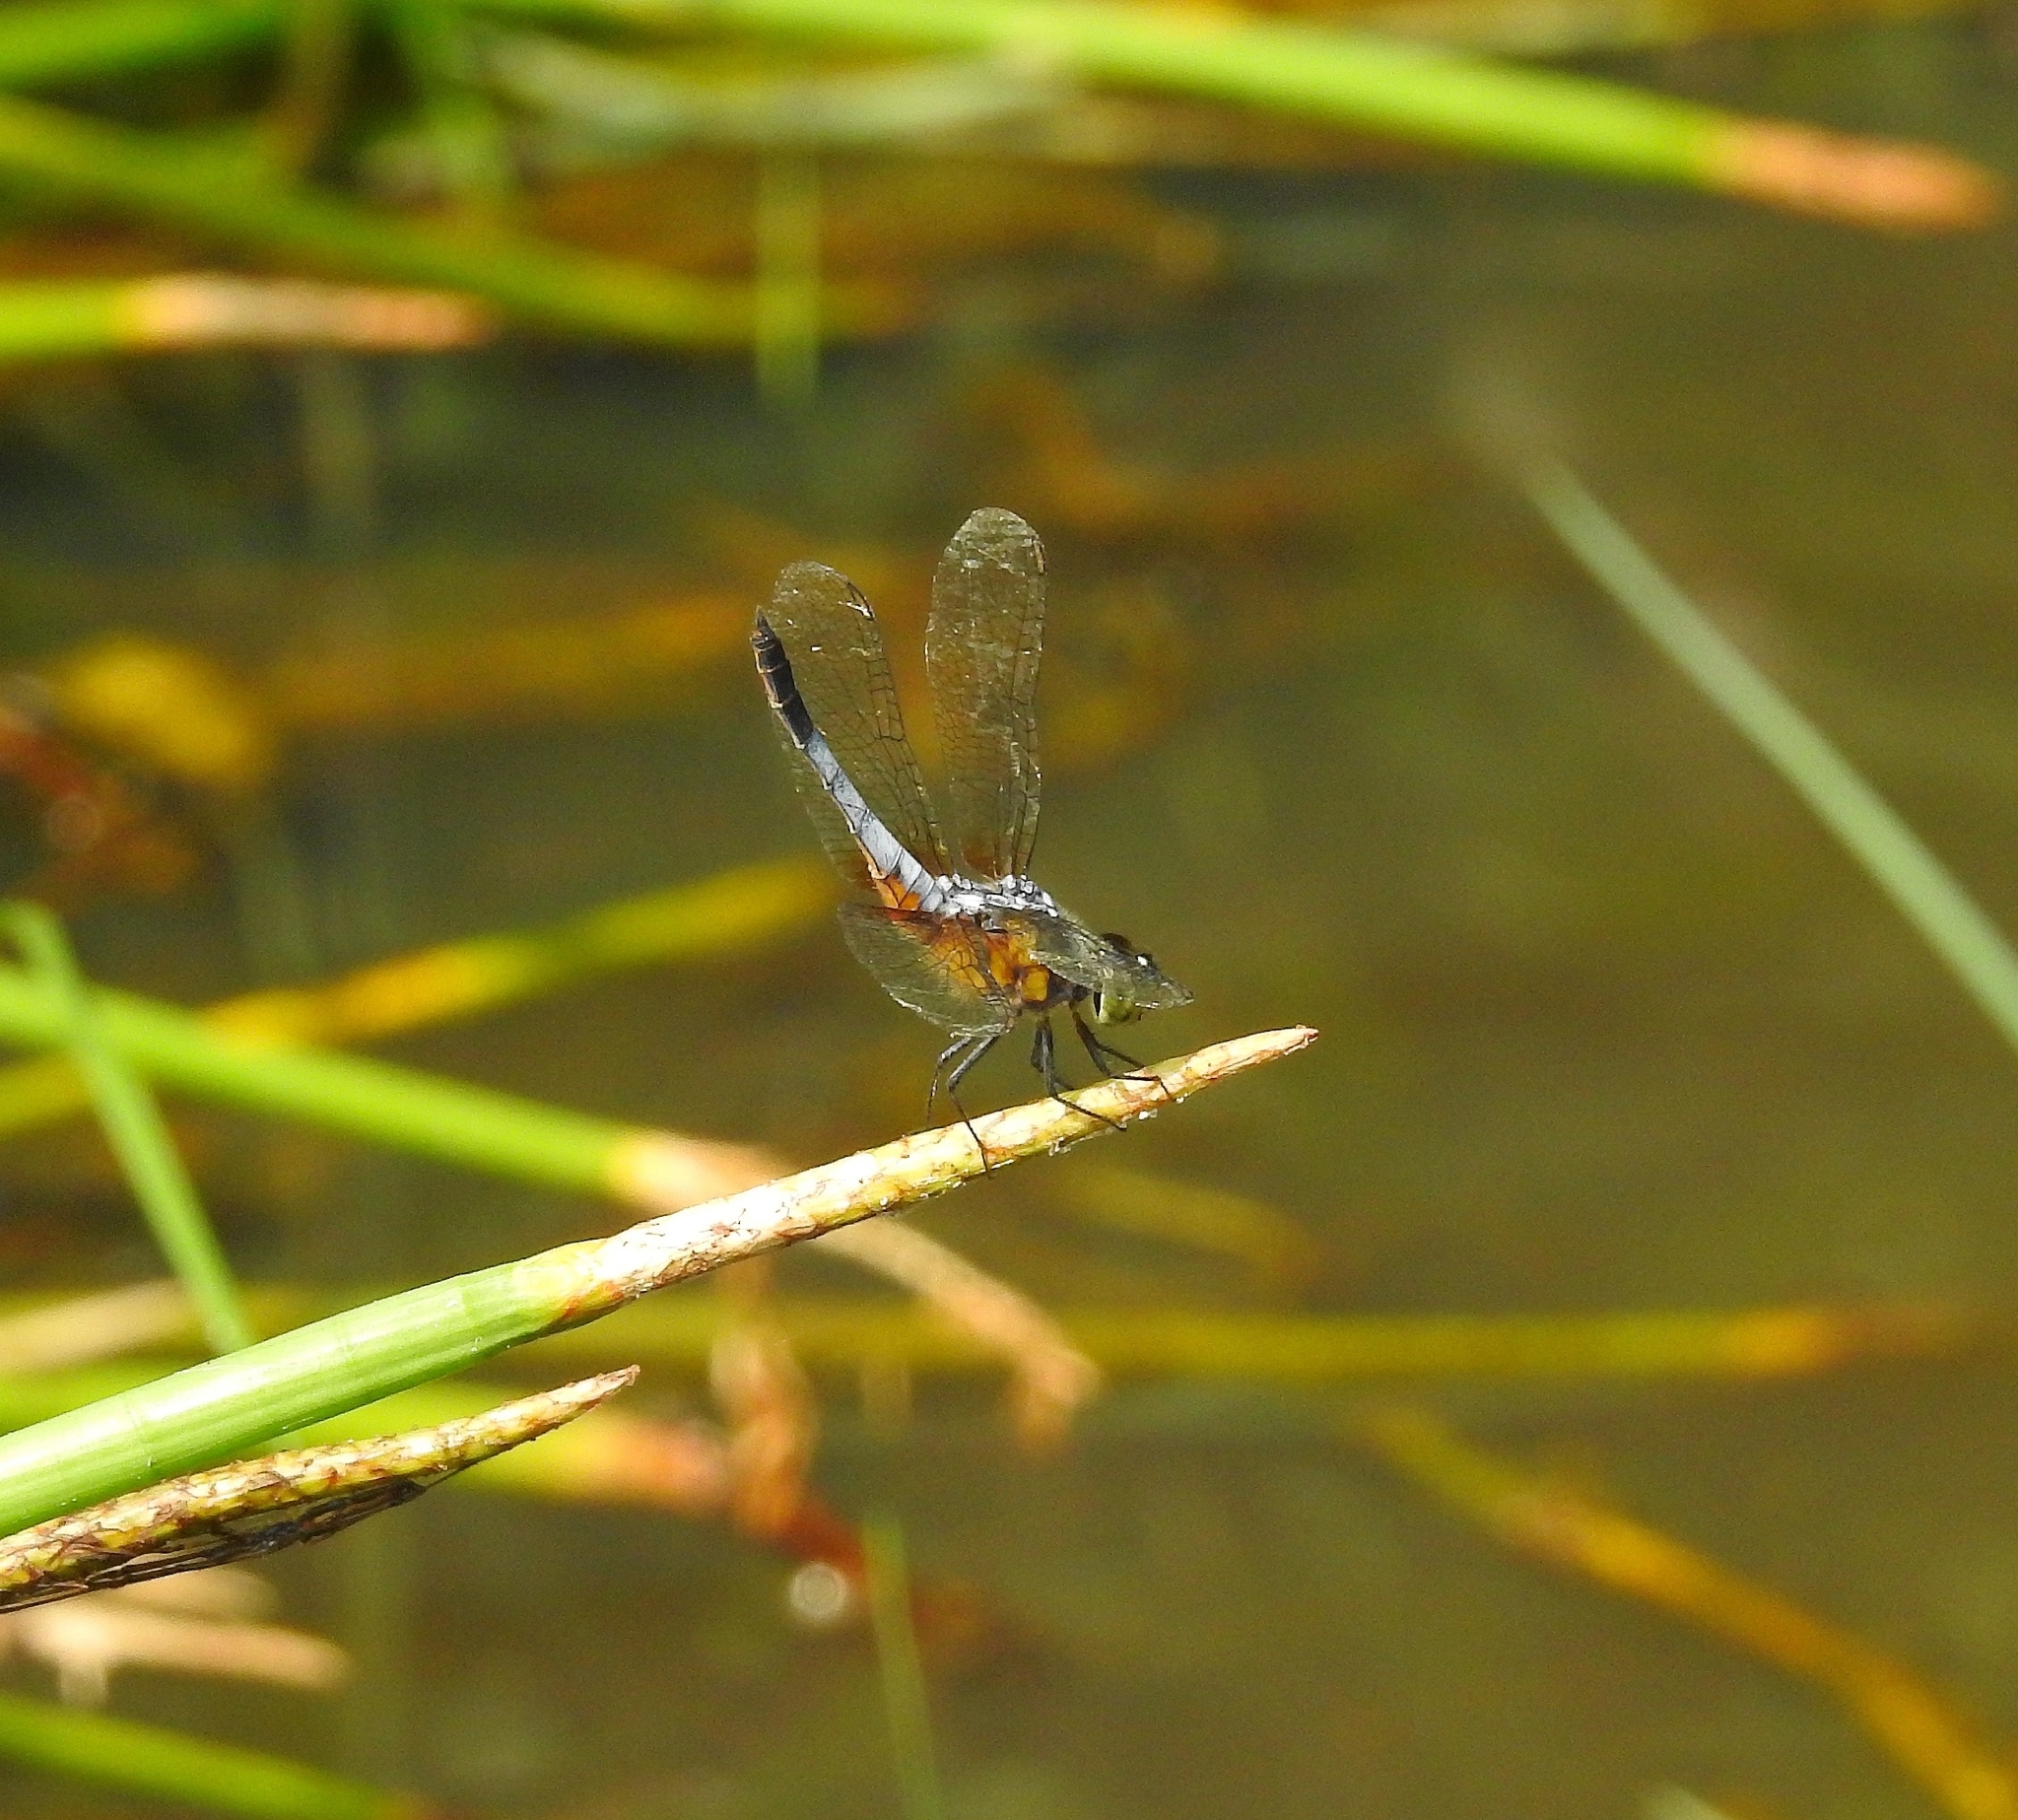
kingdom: Animalia
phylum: Arthropoda
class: Insecta
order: Odonata
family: Libellulidae
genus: Brachydiplax
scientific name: Brachydiplax chalybea
